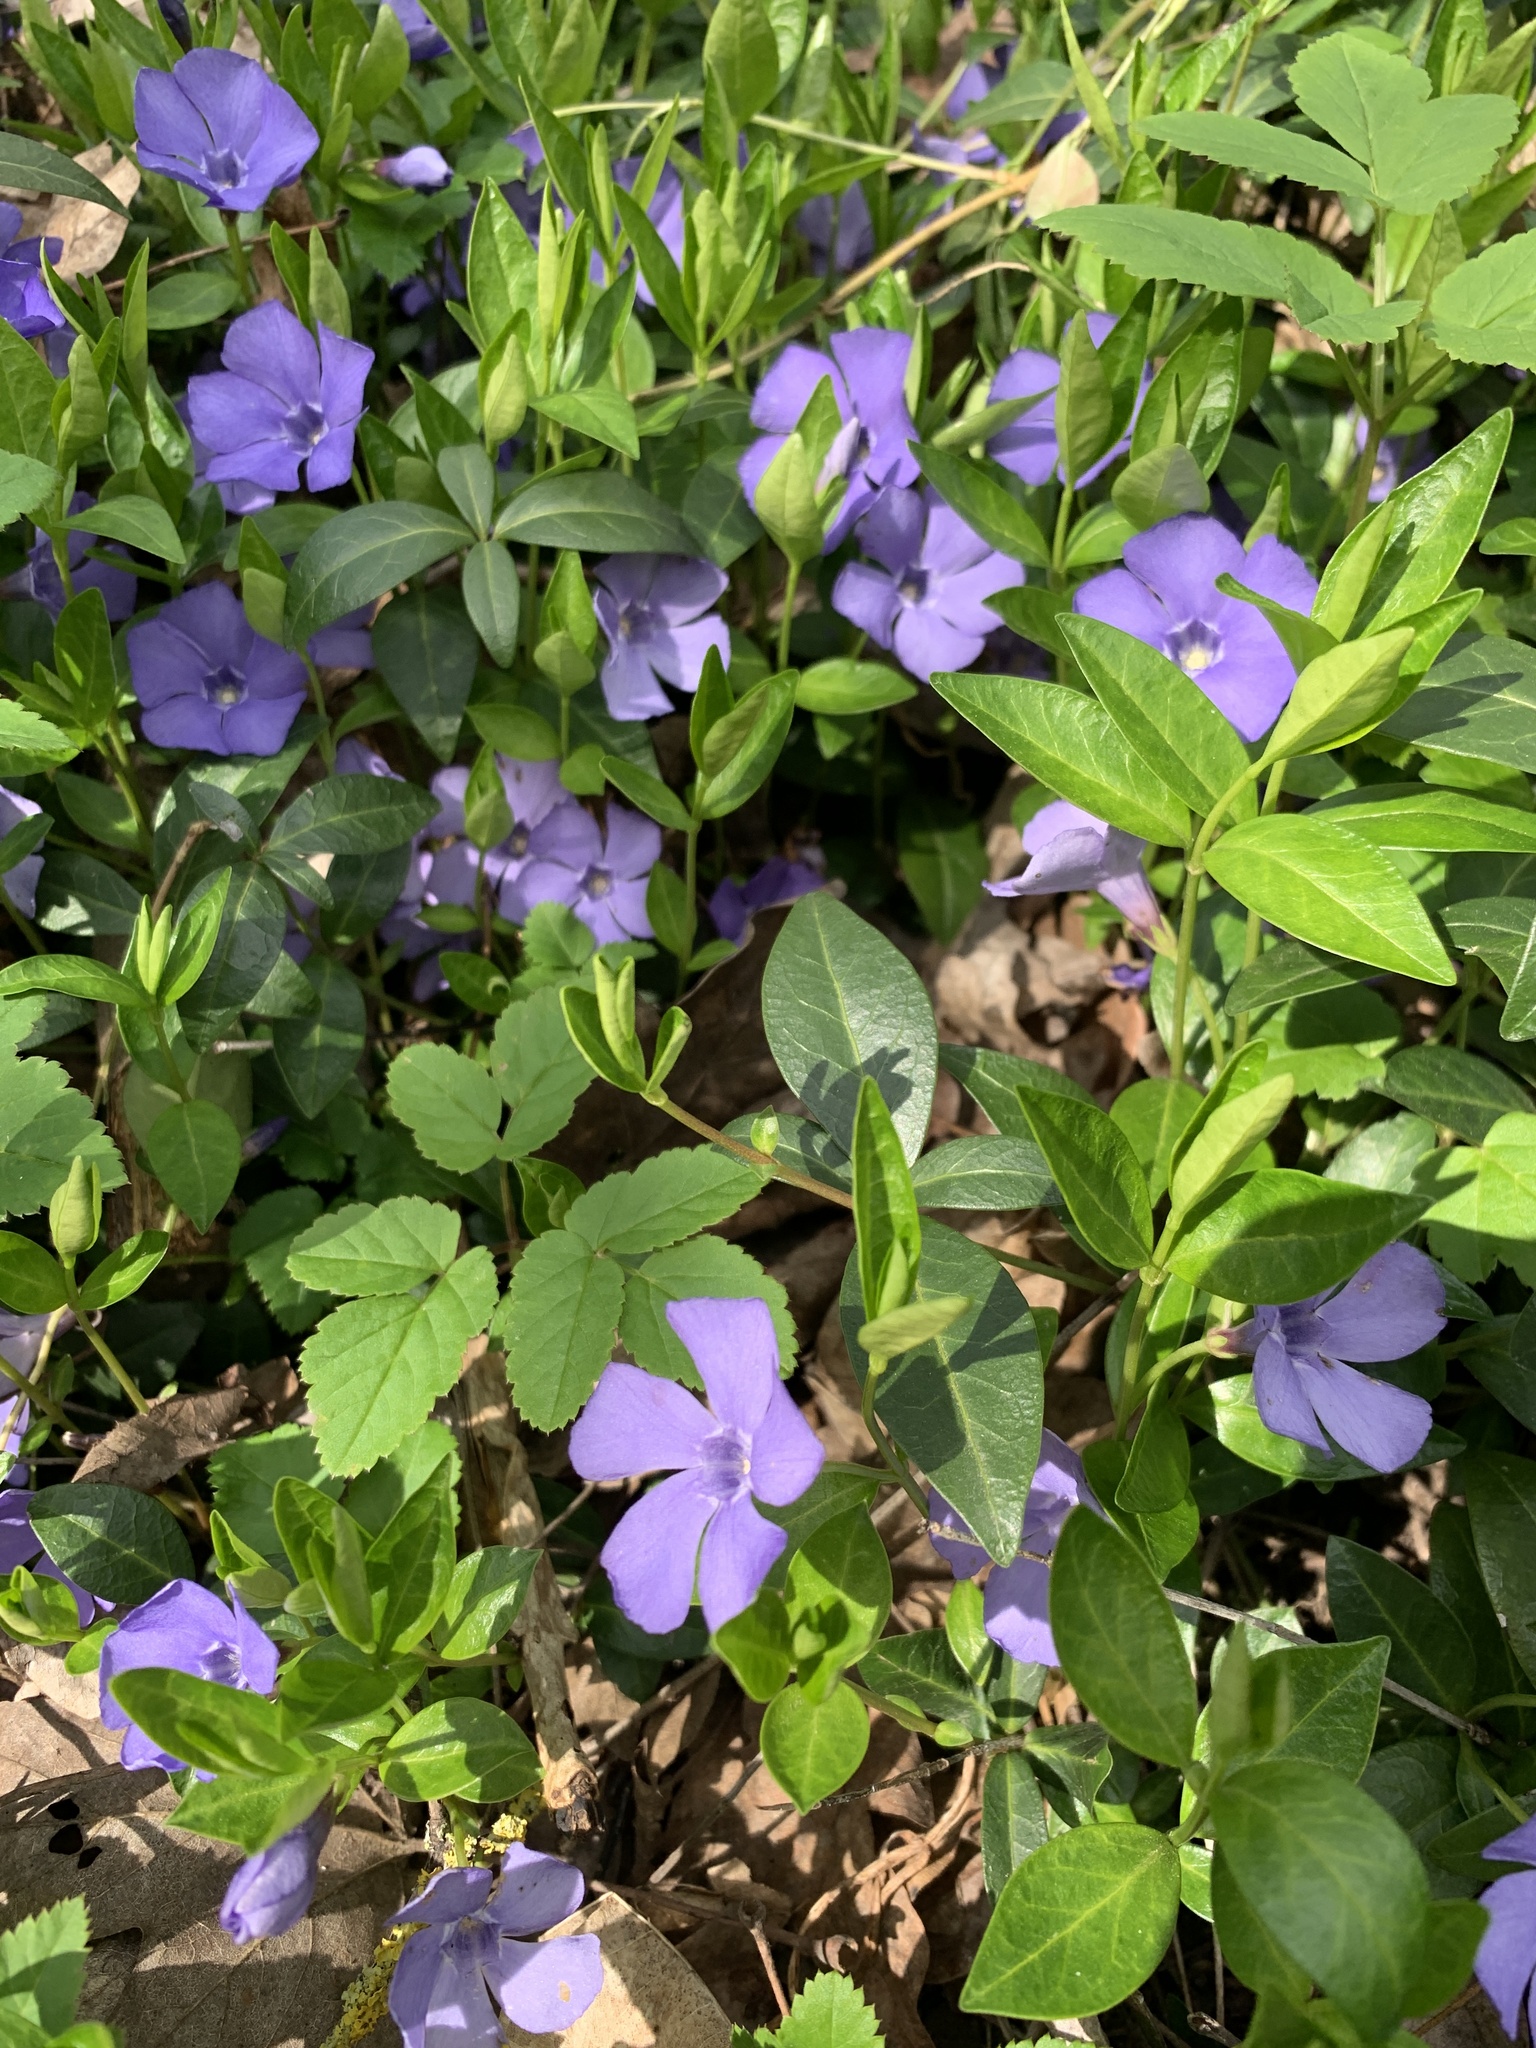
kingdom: Plantae
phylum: Tracheophyta
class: Magnoliopsida
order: Gentianales
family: Apocynaceae
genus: Vinca
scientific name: Vinca minor
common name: Lesser periwinkle
